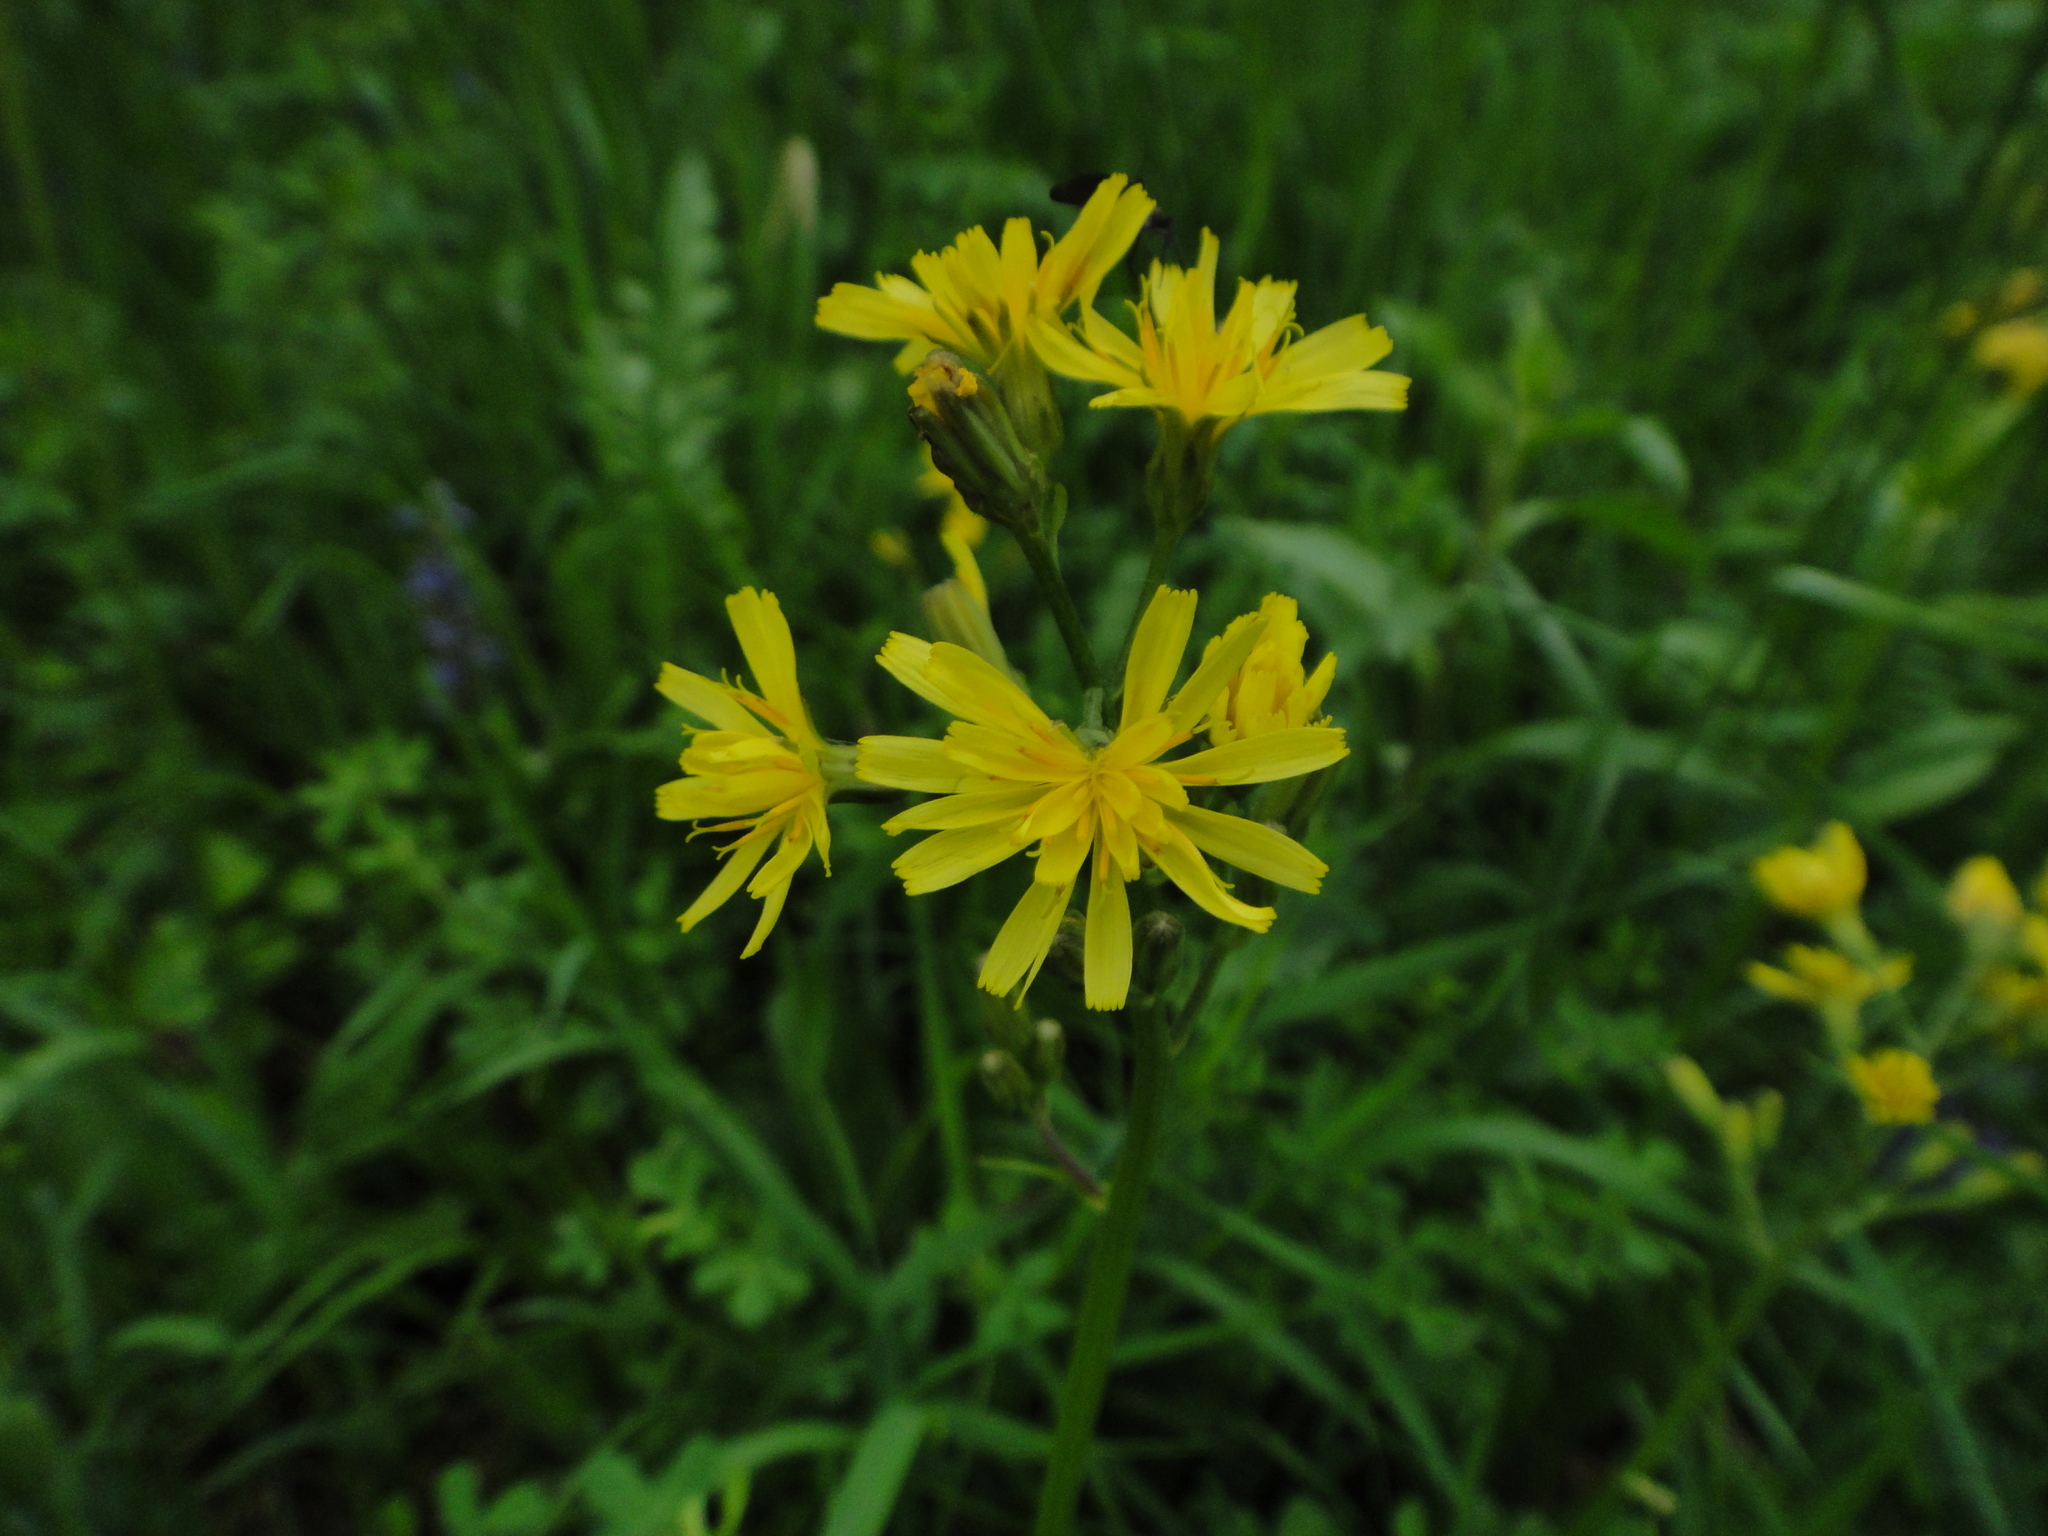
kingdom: Plantae
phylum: Tracheophyta
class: Magnoliopsida
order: Asterales
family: Asteraceae
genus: Crepis
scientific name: Crepis praemorsa
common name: Leafless hawk's-beard
